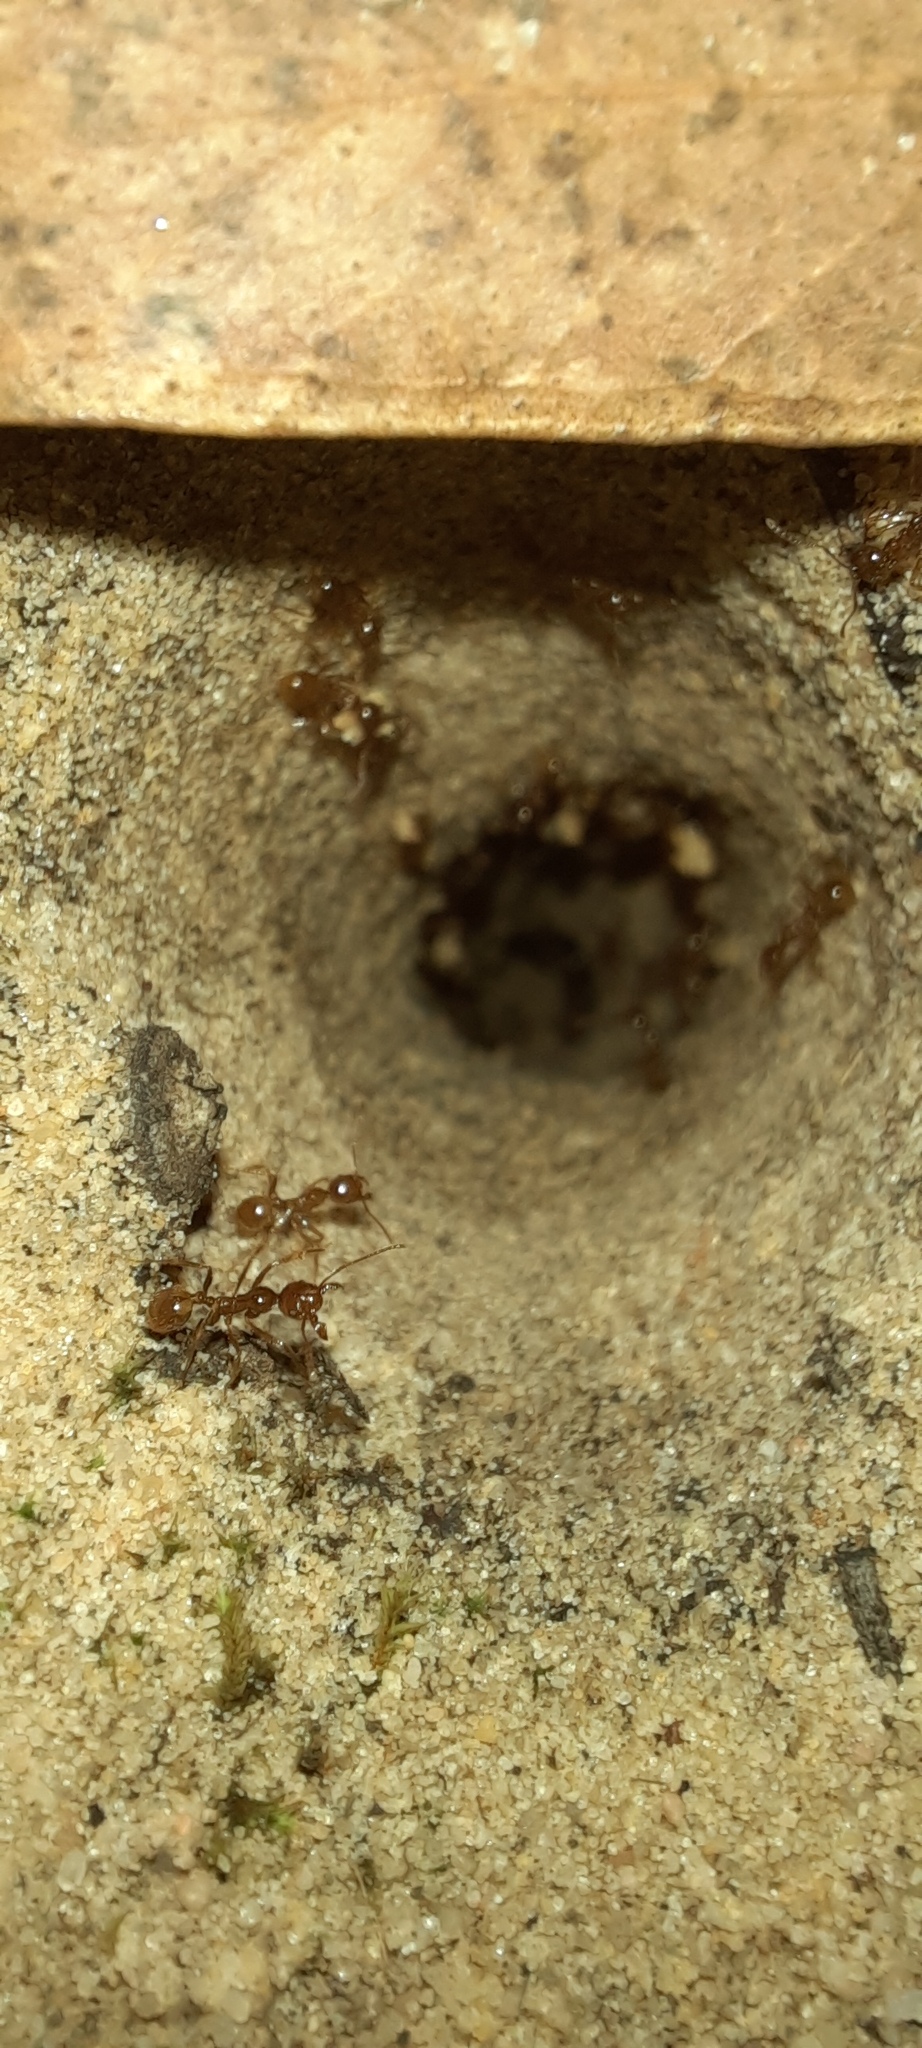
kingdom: Animalia
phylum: Arthropoda
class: Insecta
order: Hymenoptera
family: Formicidae
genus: Aphaenogaster
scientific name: Aphaenogaster barbigula
